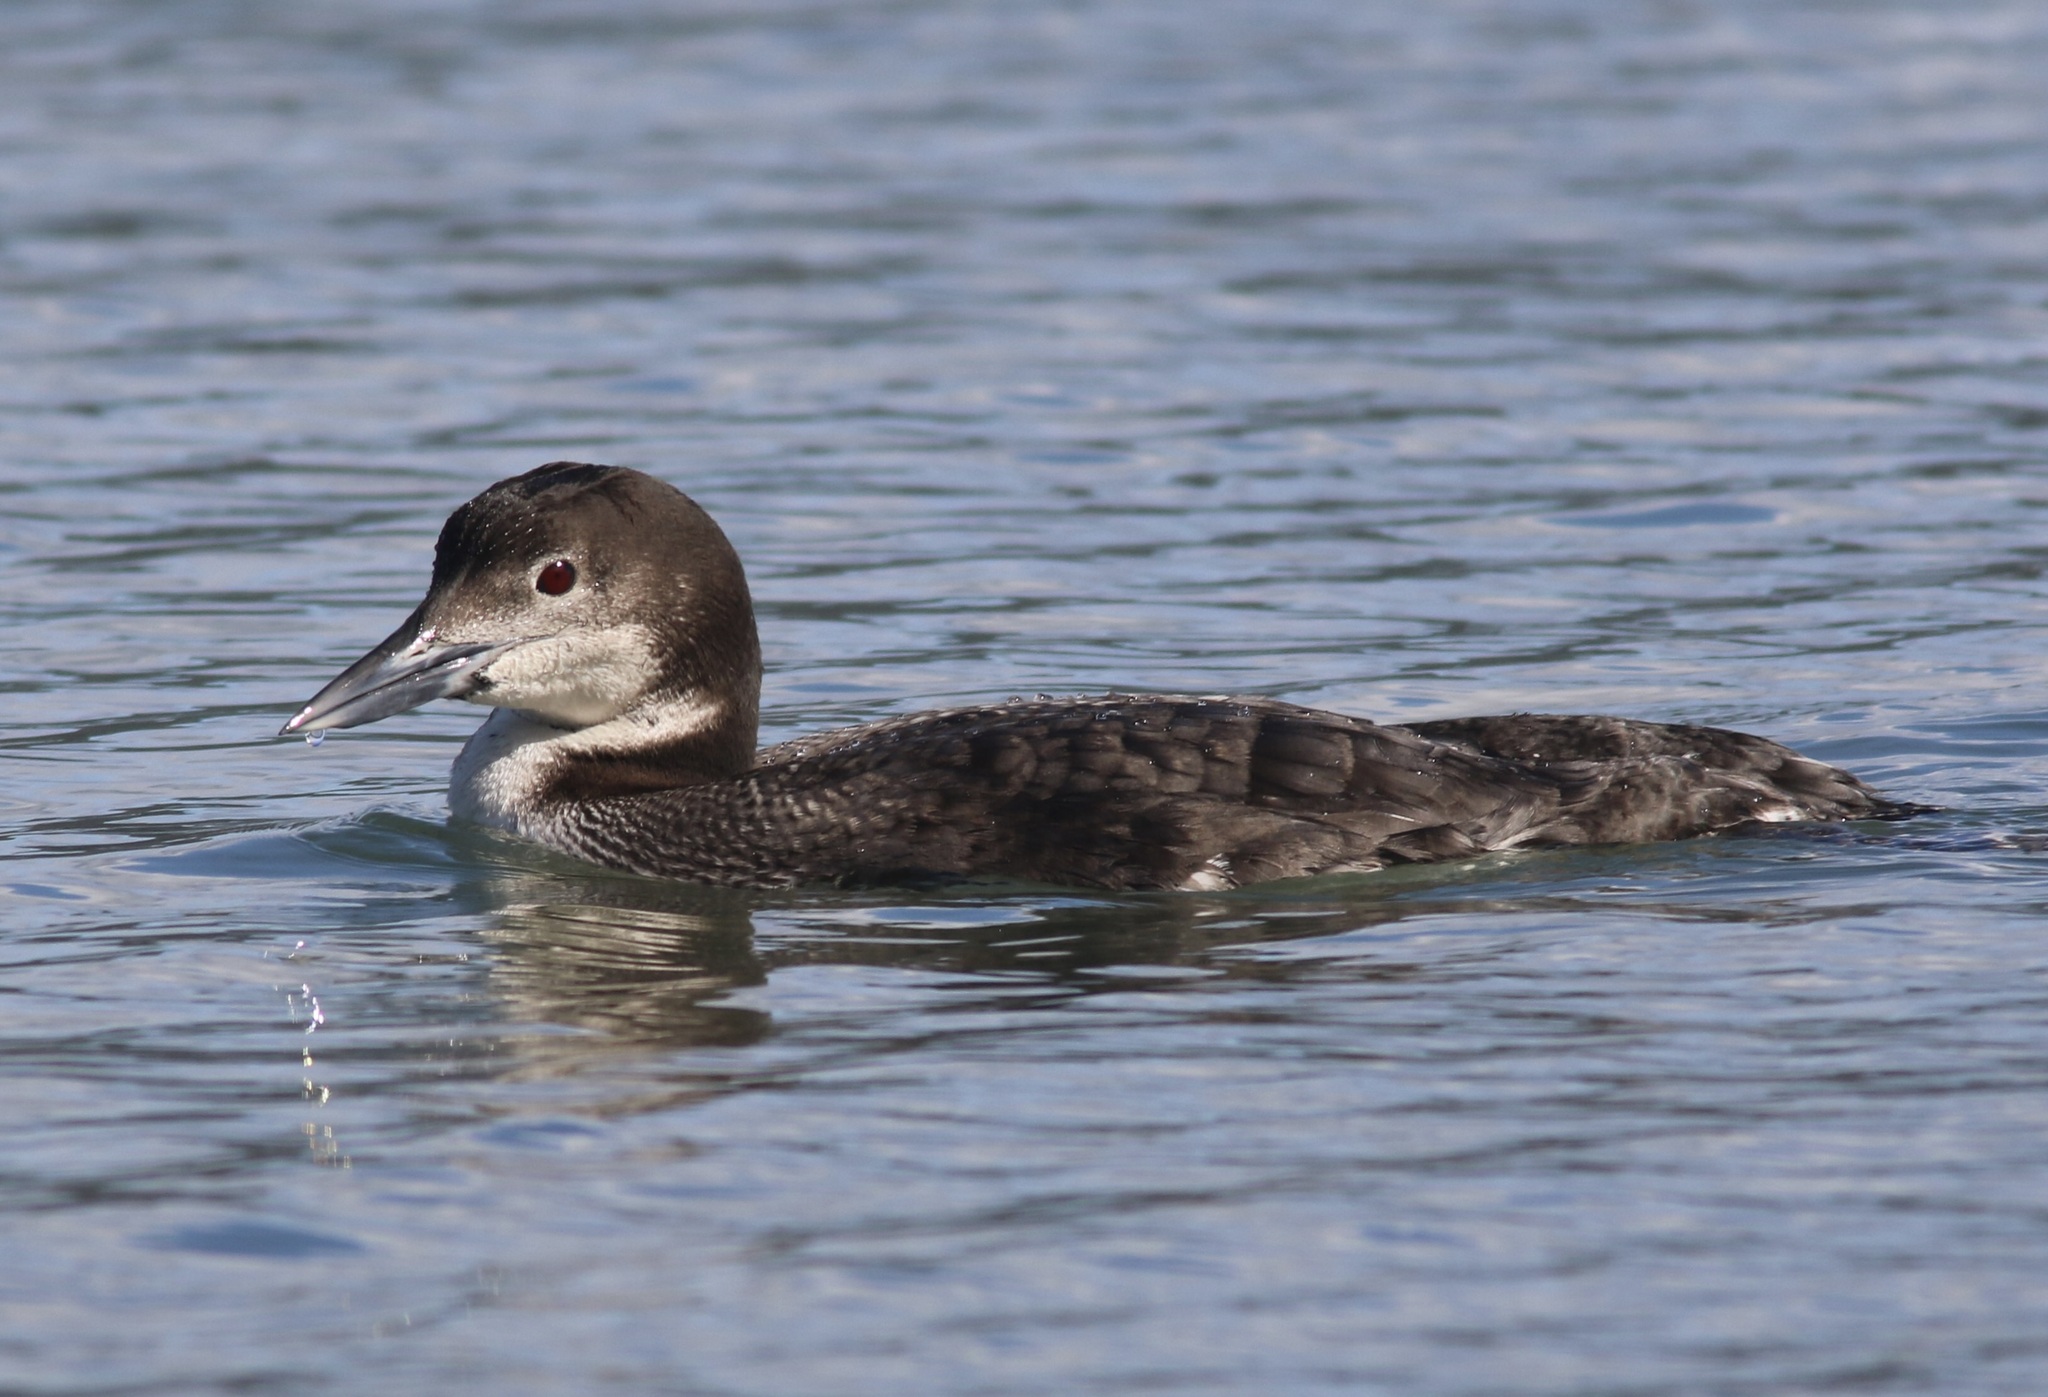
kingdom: Animalia
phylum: Chordata
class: Aves
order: Gaviiformes
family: Gaviidae
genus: Gavia
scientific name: Gavia immer
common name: Common loon
